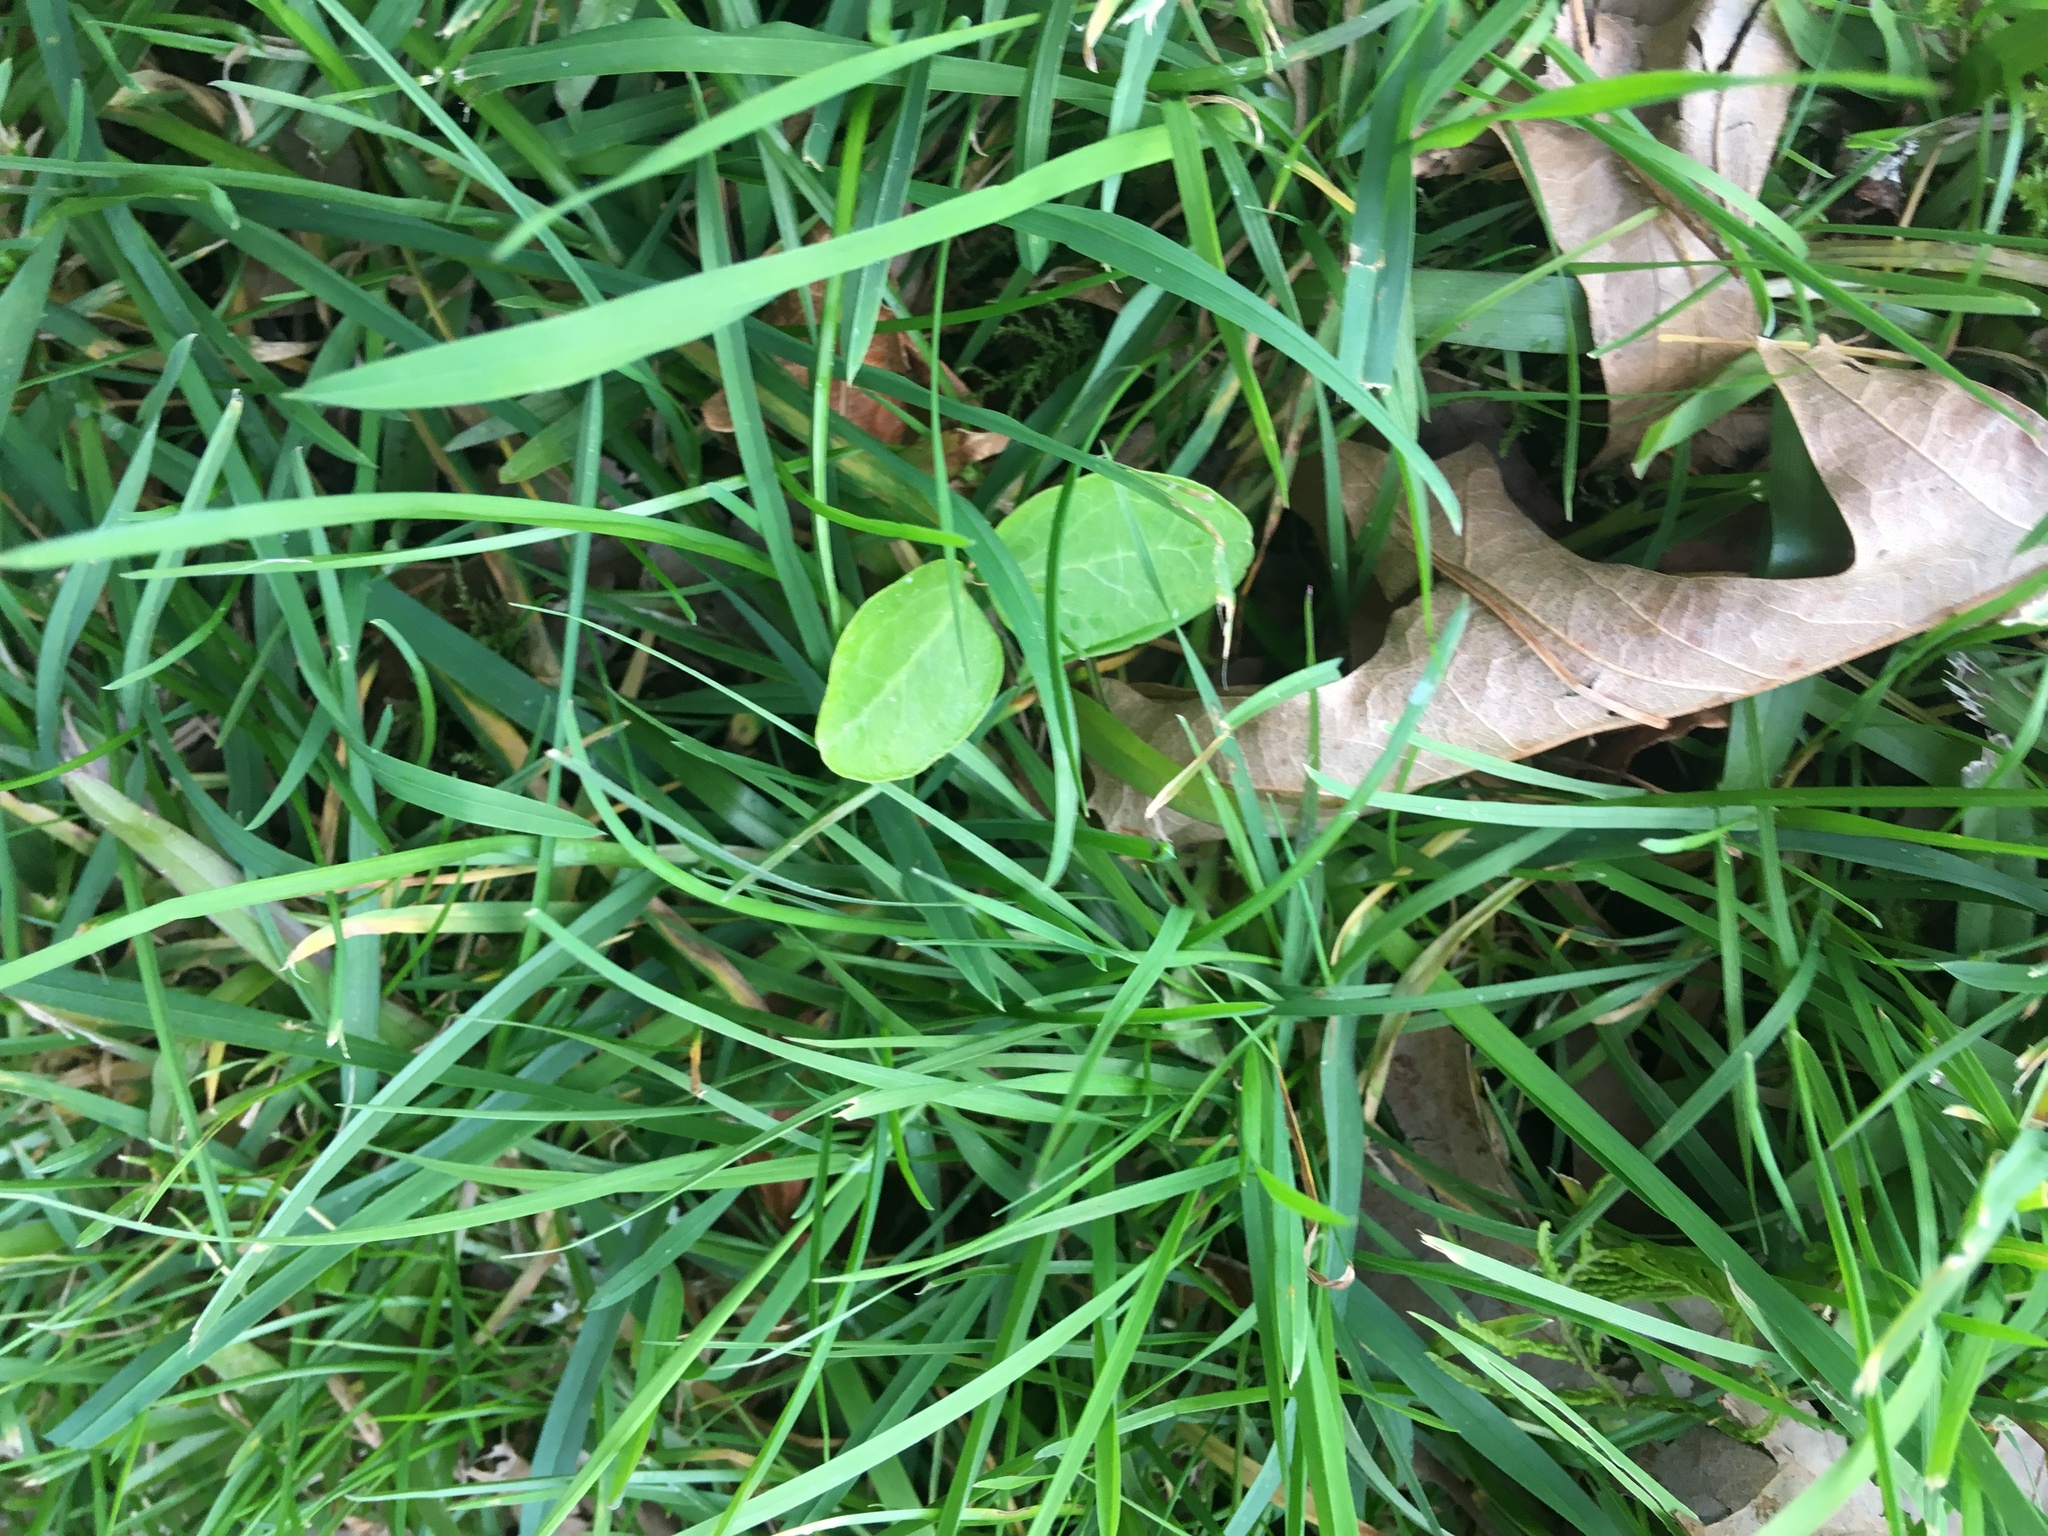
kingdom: Plantae
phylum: Tracheophyta
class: Magnoliopsida
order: Apiales
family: Araliaceae
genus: Hedera
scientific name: Hedera helix
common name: Ivy
